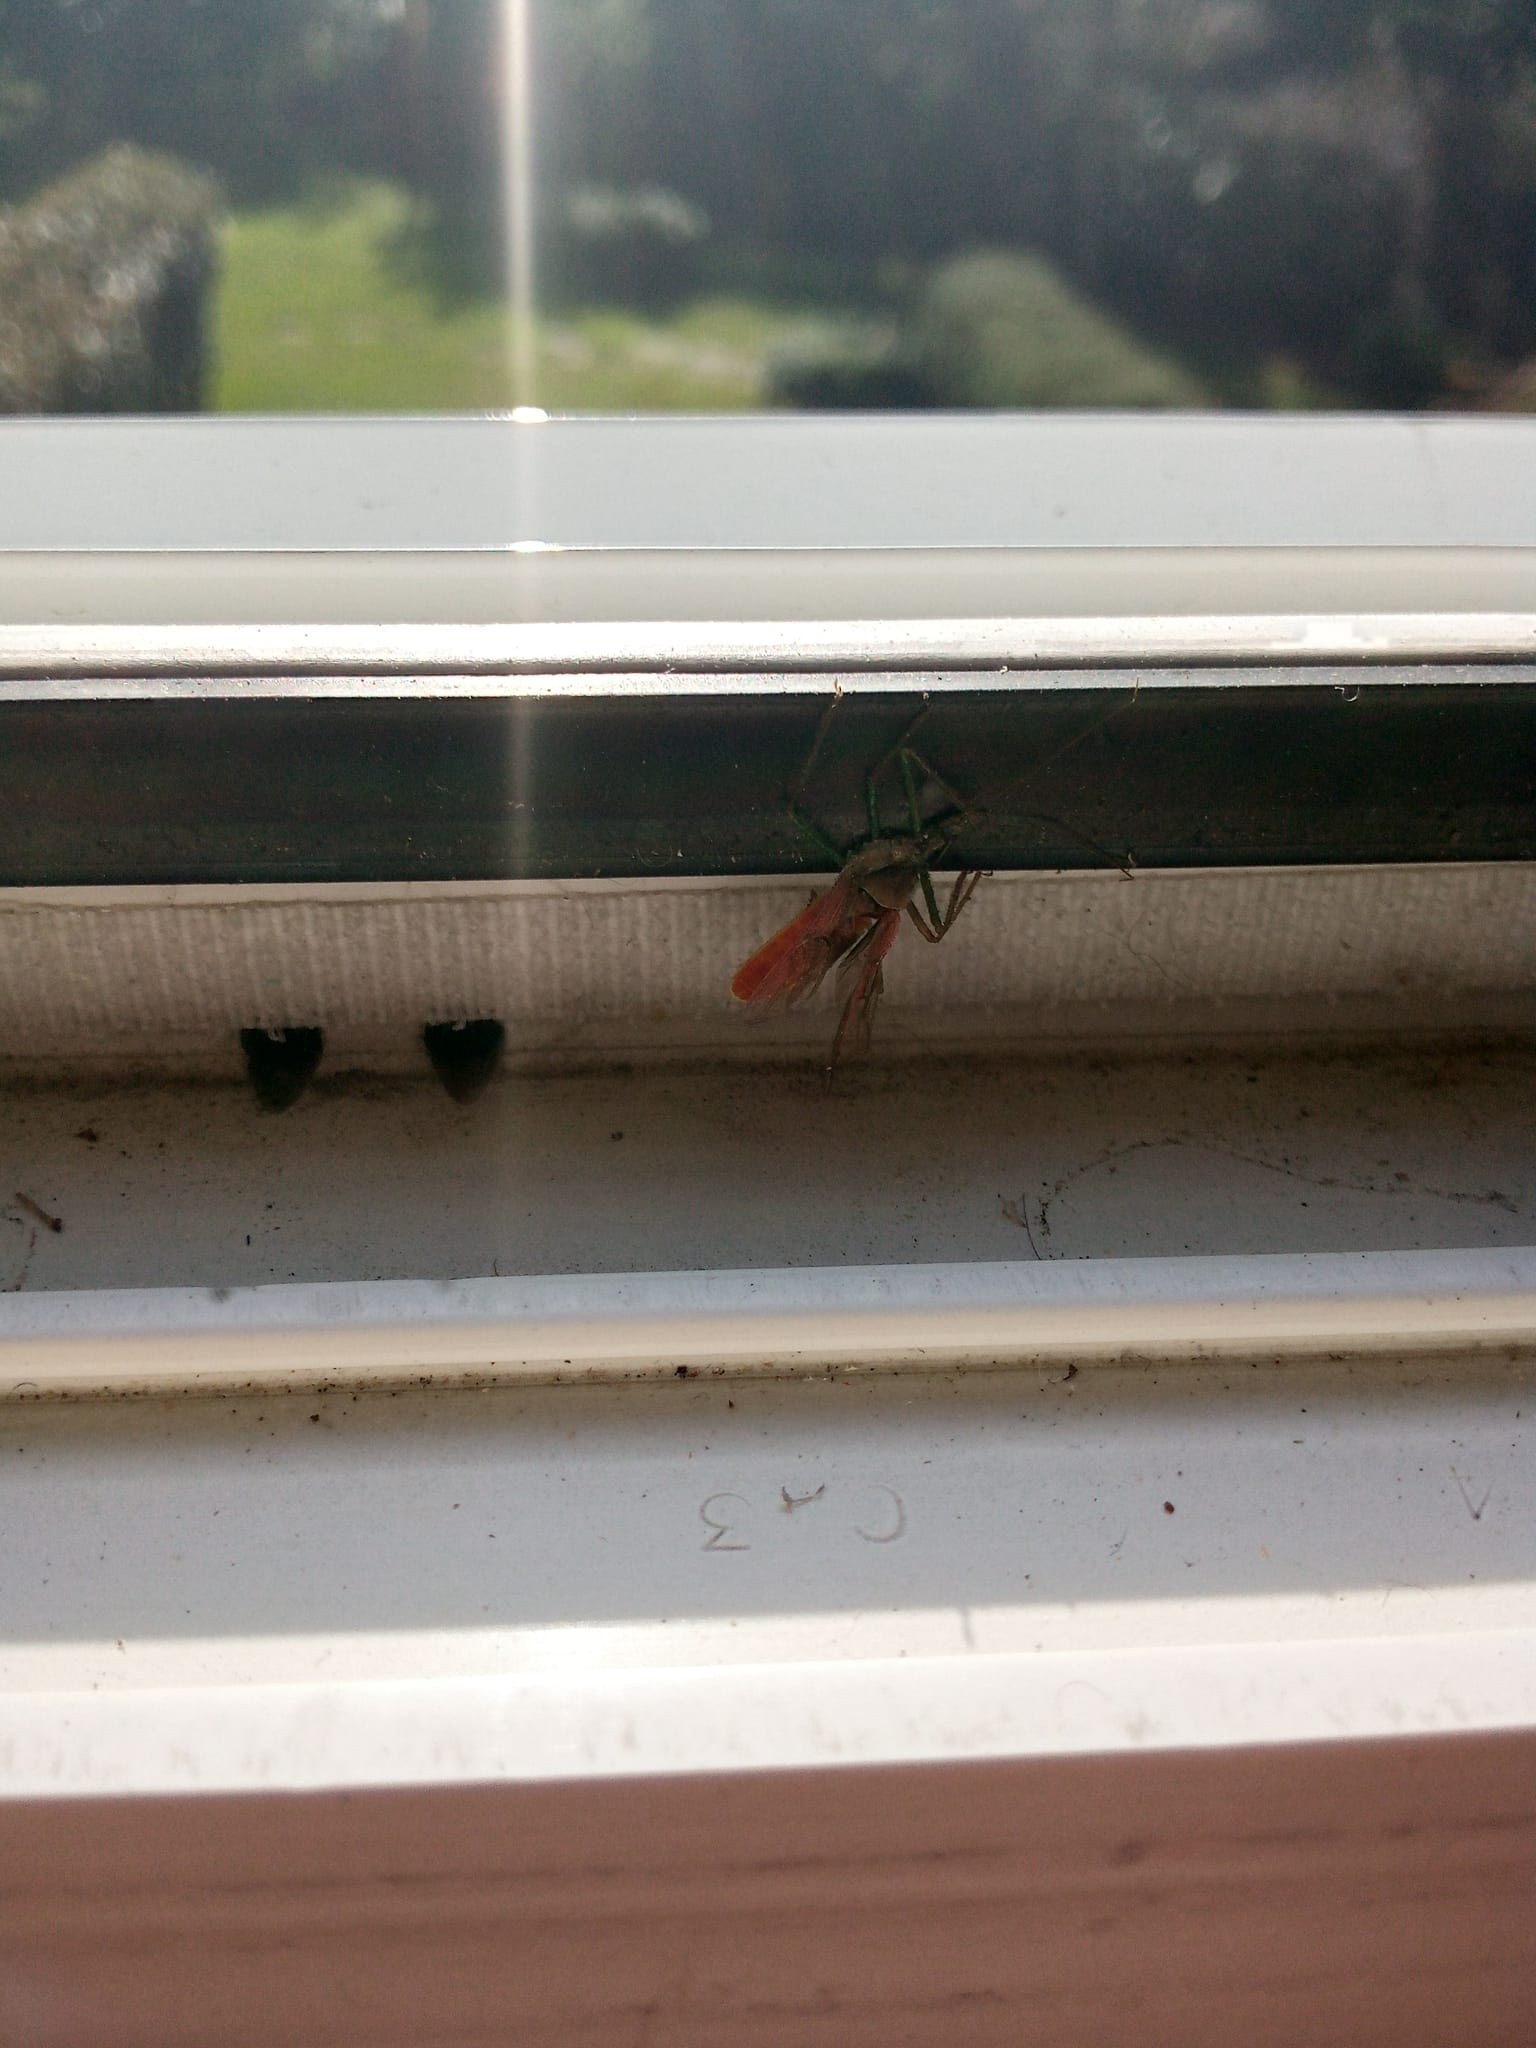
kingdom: Animalia
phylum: Arthropoda
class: Insecta
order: Hemiptera
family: Reduviidae
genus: Zelus
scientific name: Zelus renardii
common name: Assassin bug
